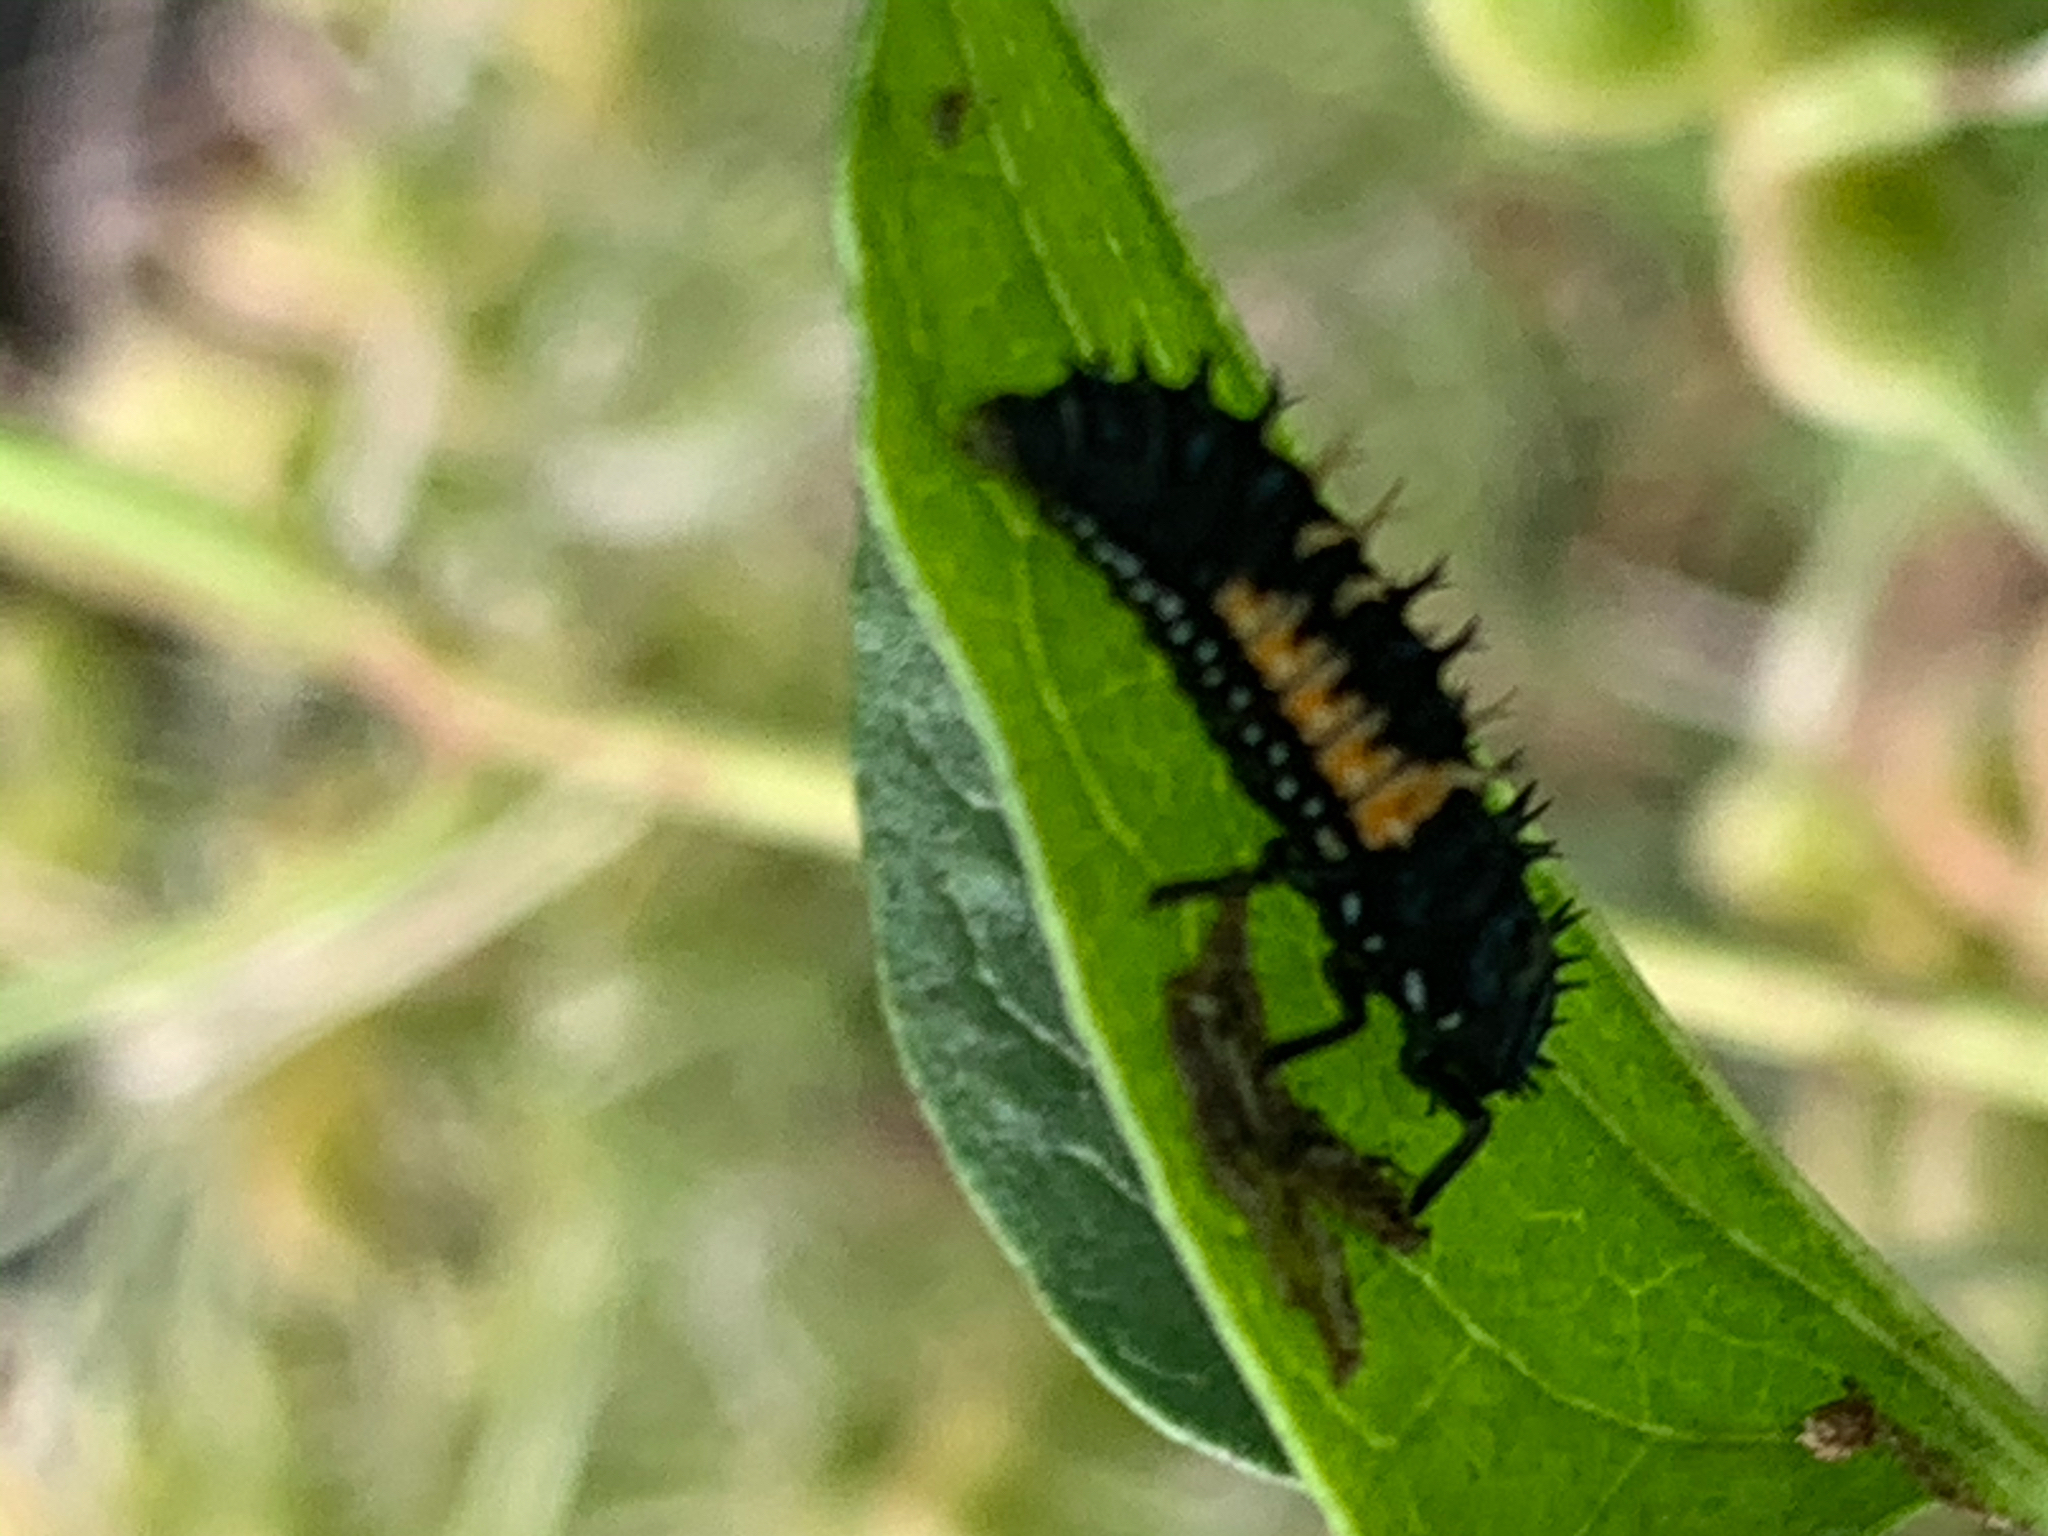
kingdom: Animalia
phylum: Arthropoda
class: Insecta
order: Coleoptera
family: Coccinellidae
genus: Harmonia
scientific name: Harmonia axyridis
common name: Harlequin ladybird
